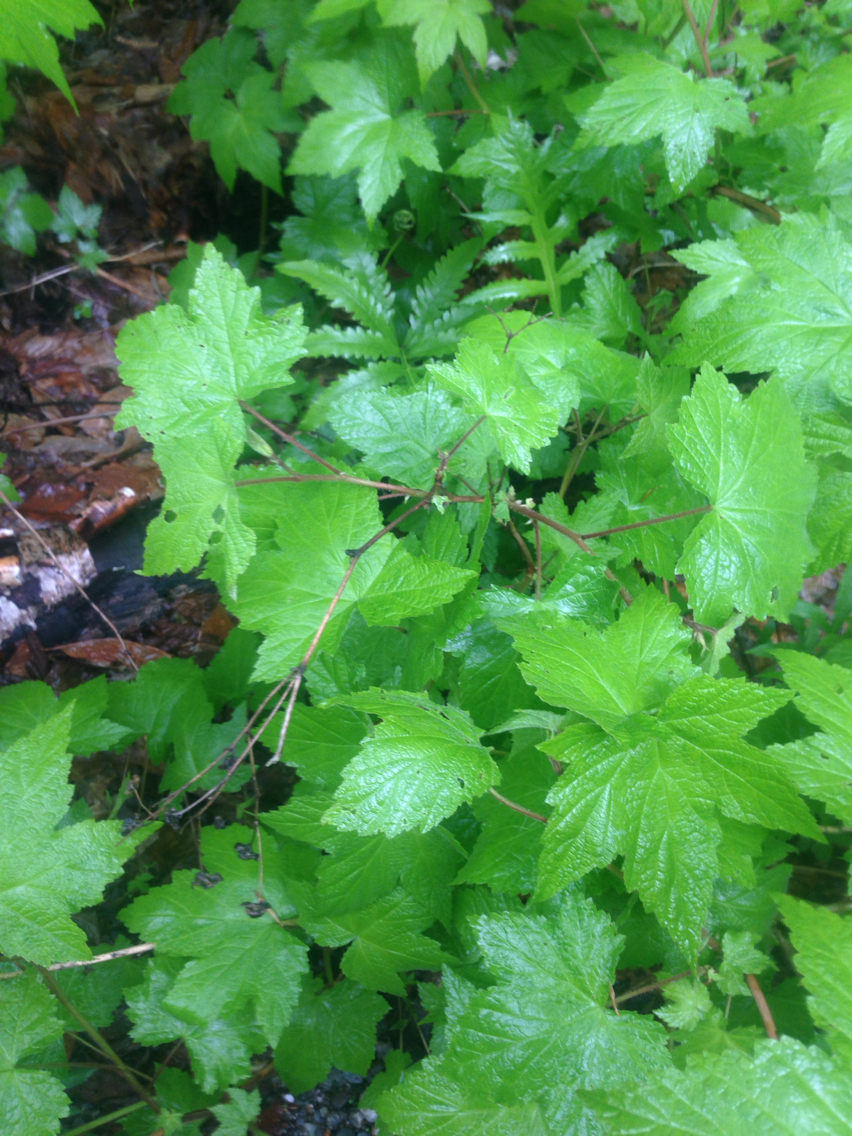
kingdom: Plantae
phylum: Tracheophyta
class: Magnoliopsida
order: Rosales
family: Rosaceae
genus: Rubus
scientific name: Rubus odoratus
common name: Purple-flowered raspberry
